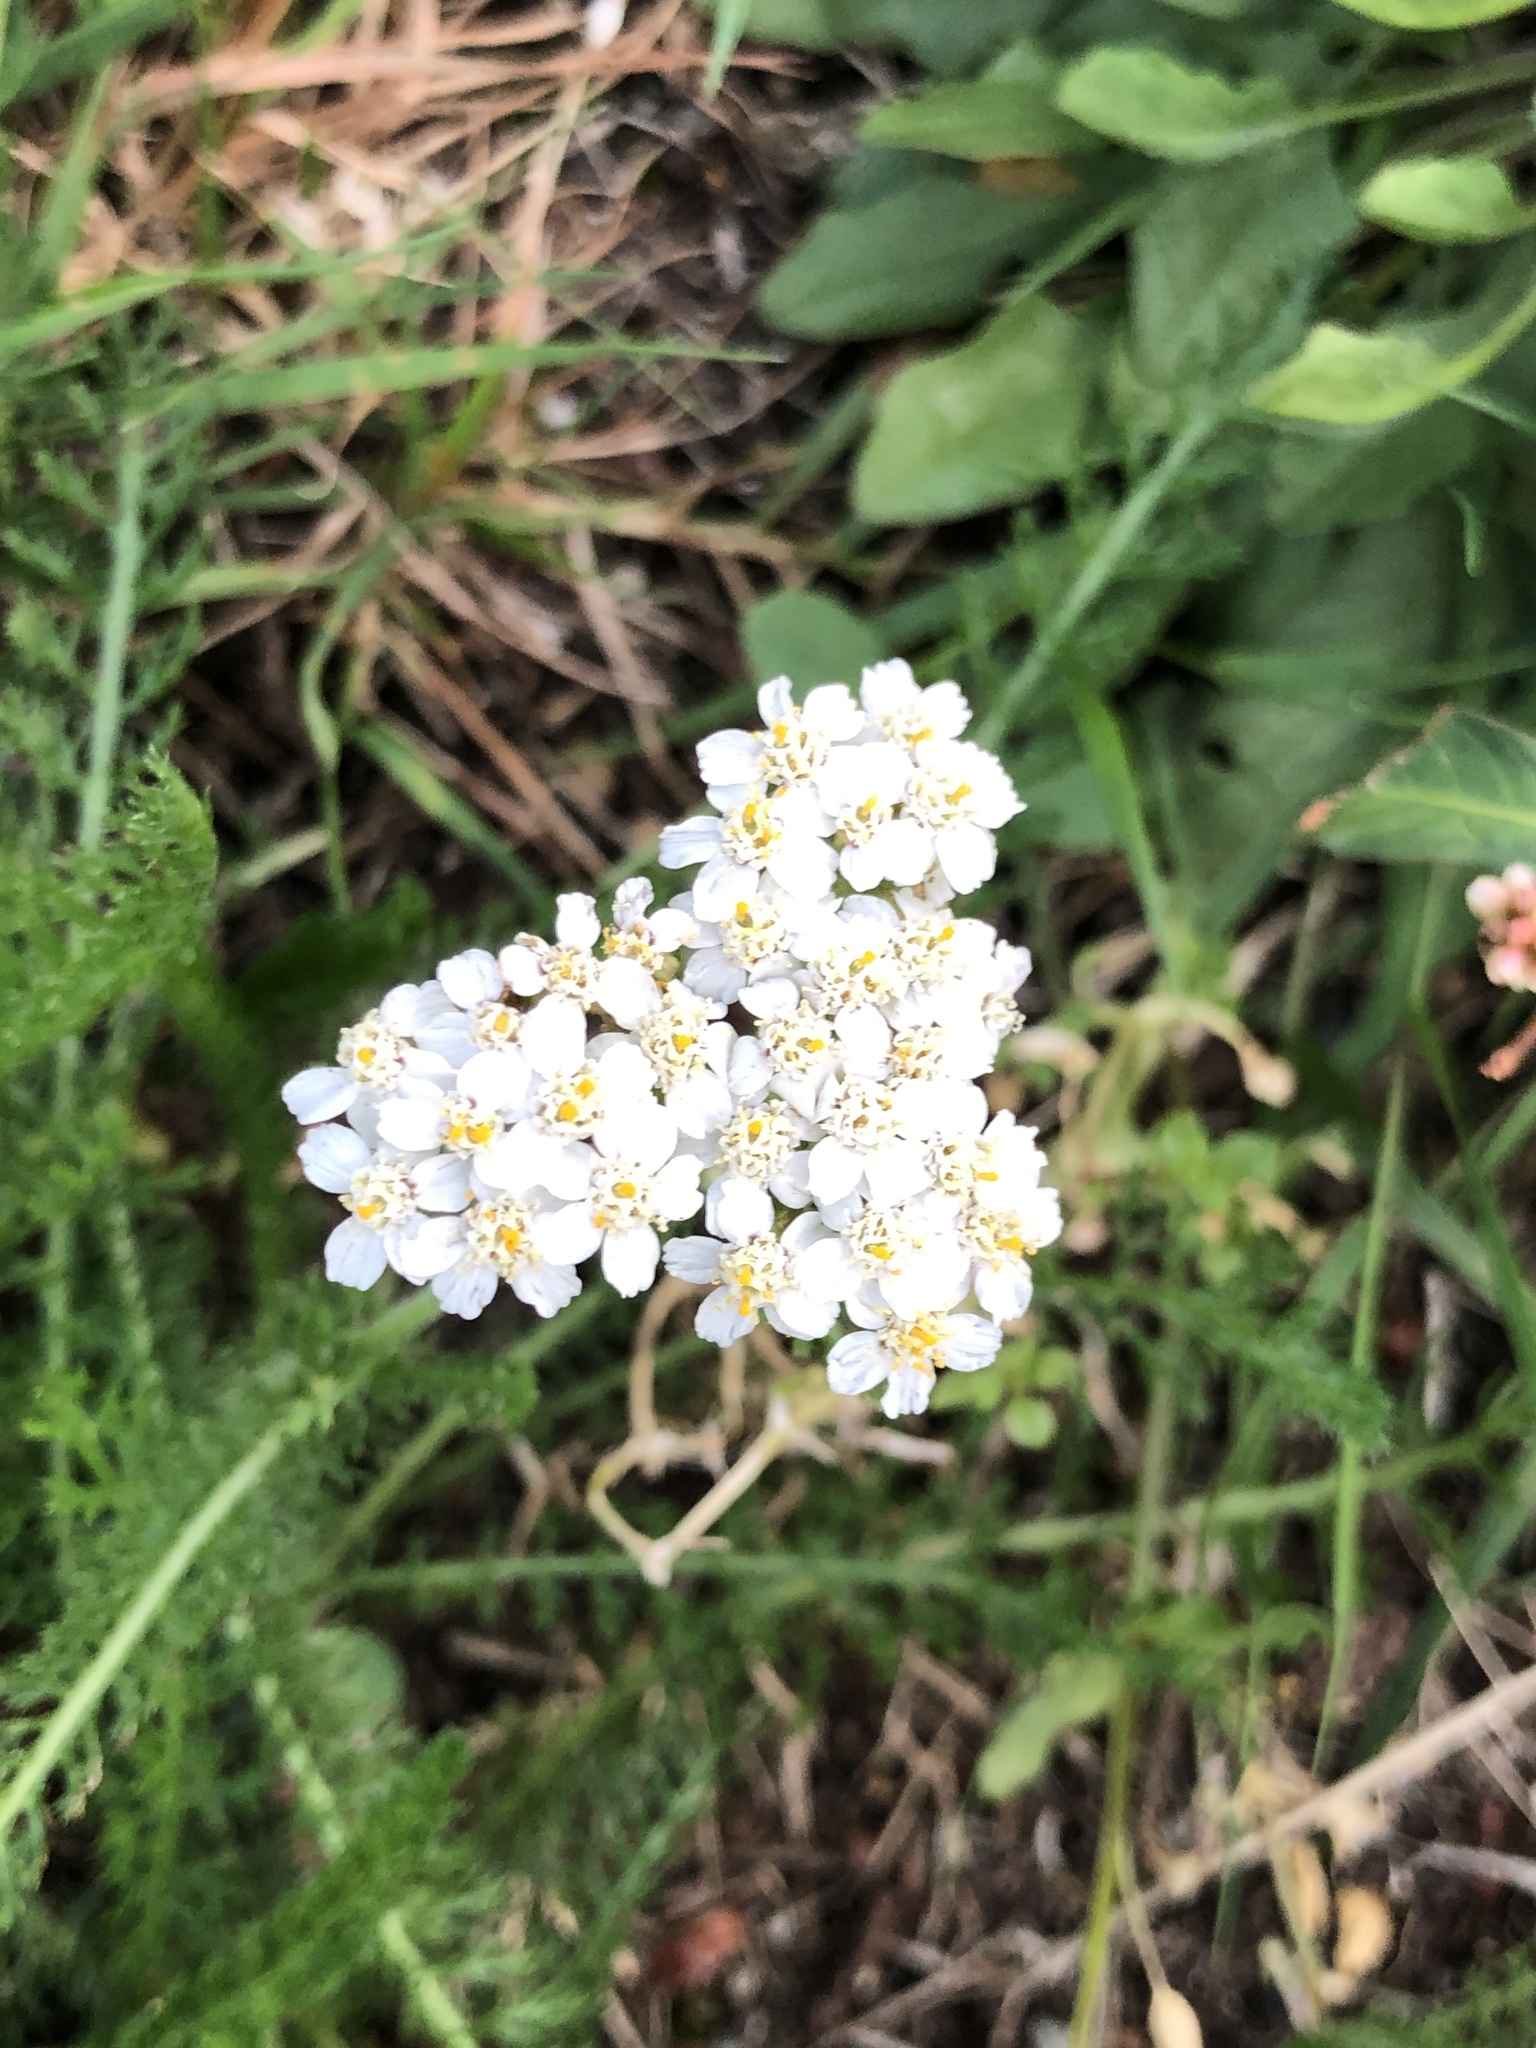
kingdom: Plantae
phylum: Tracheophyta
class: Magnoliopsida
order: Asterales
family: Asteraceae
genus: Achillea
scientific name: Achillea millefolium
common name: Yarrow
